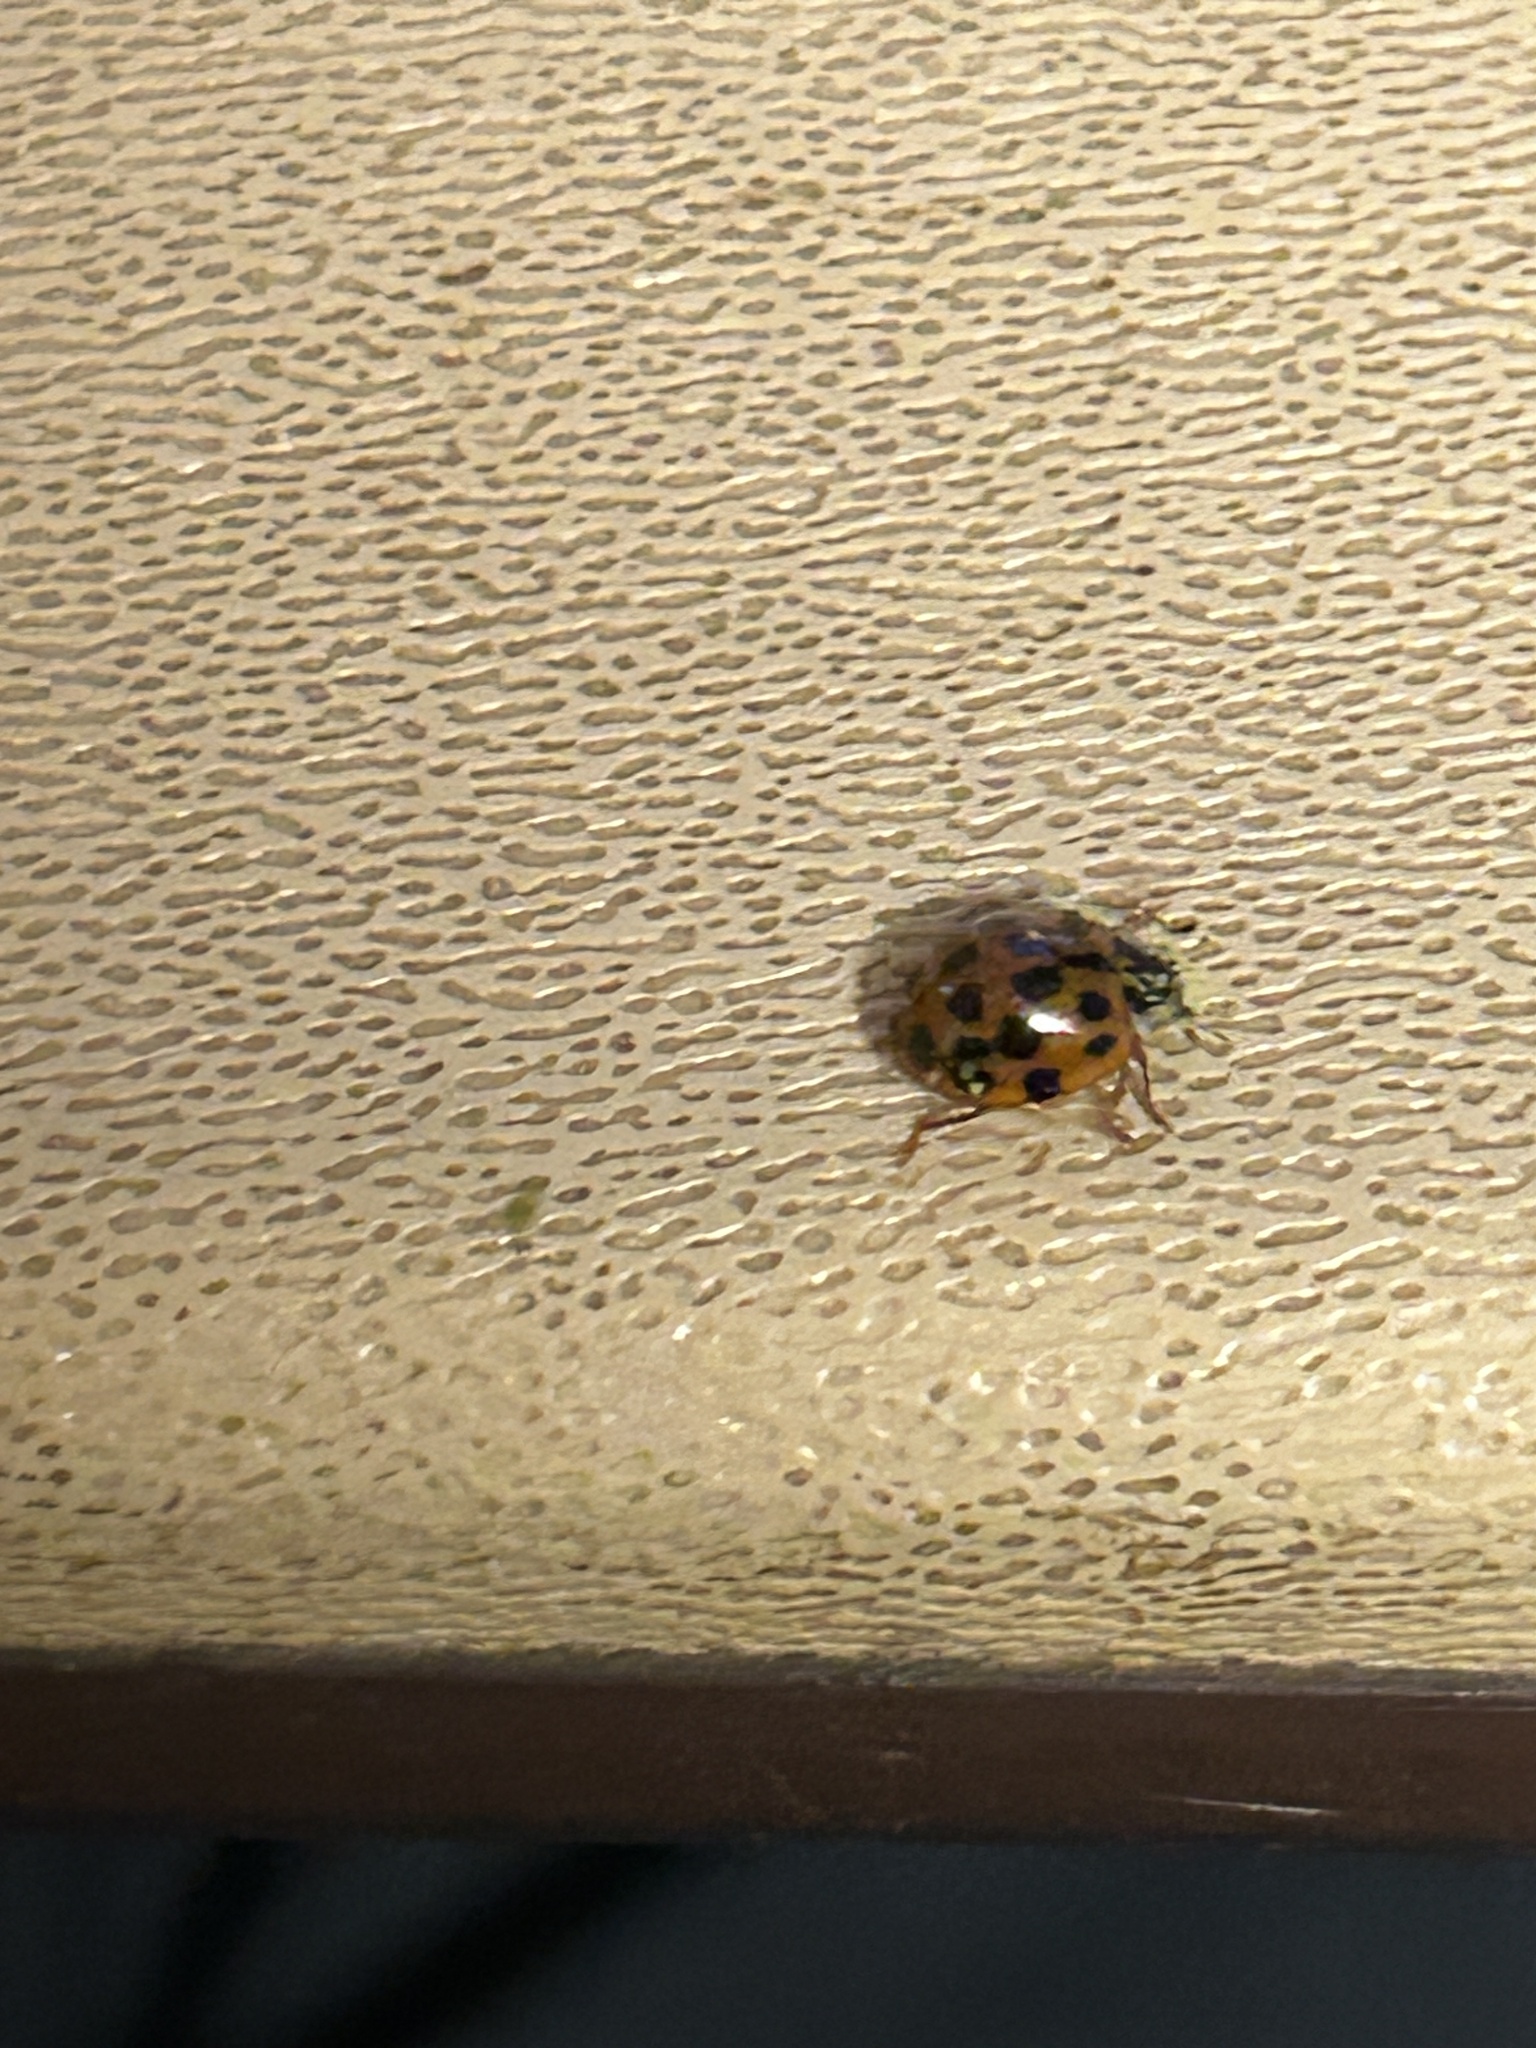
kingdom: Fungi
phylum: Ascomycota
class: Laboulbeniomycetes
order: Laboulbeniales
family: Laboulbeniaceae
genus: Hesperomyces
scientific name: Hesperomyces harmoniae
